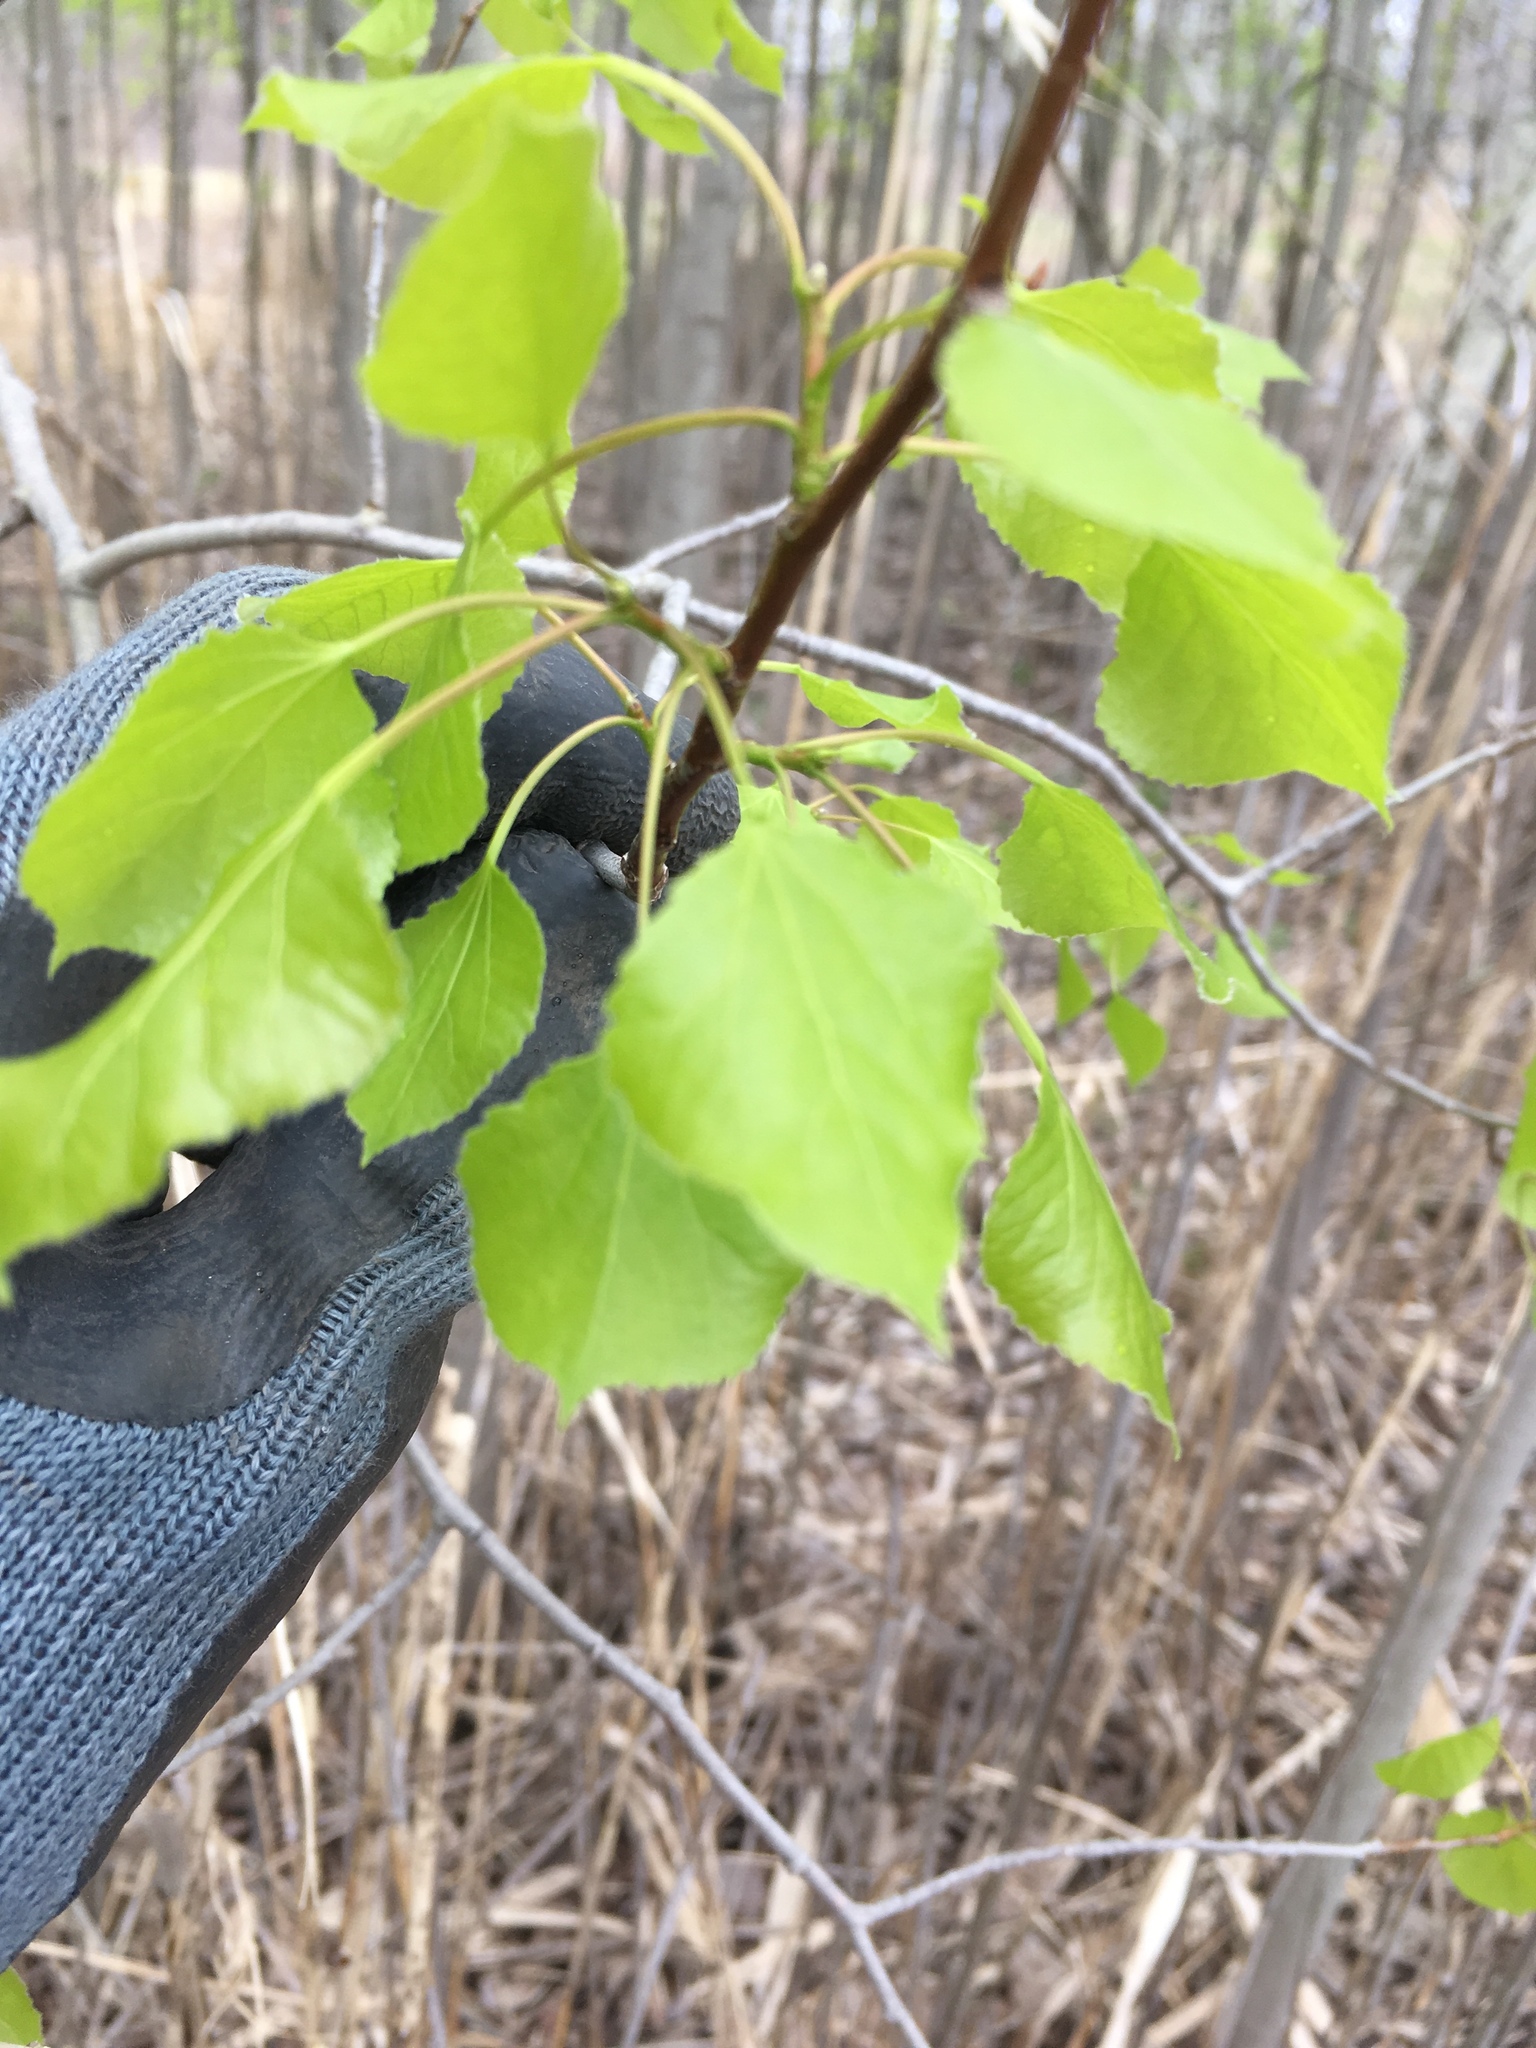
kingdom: Plantae
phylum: Tracheophyta
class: Magnoliopsida
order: Malpighiales
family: Salicaceae
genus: Populus
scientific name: Populus tremuloides
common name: Quaking aspen
